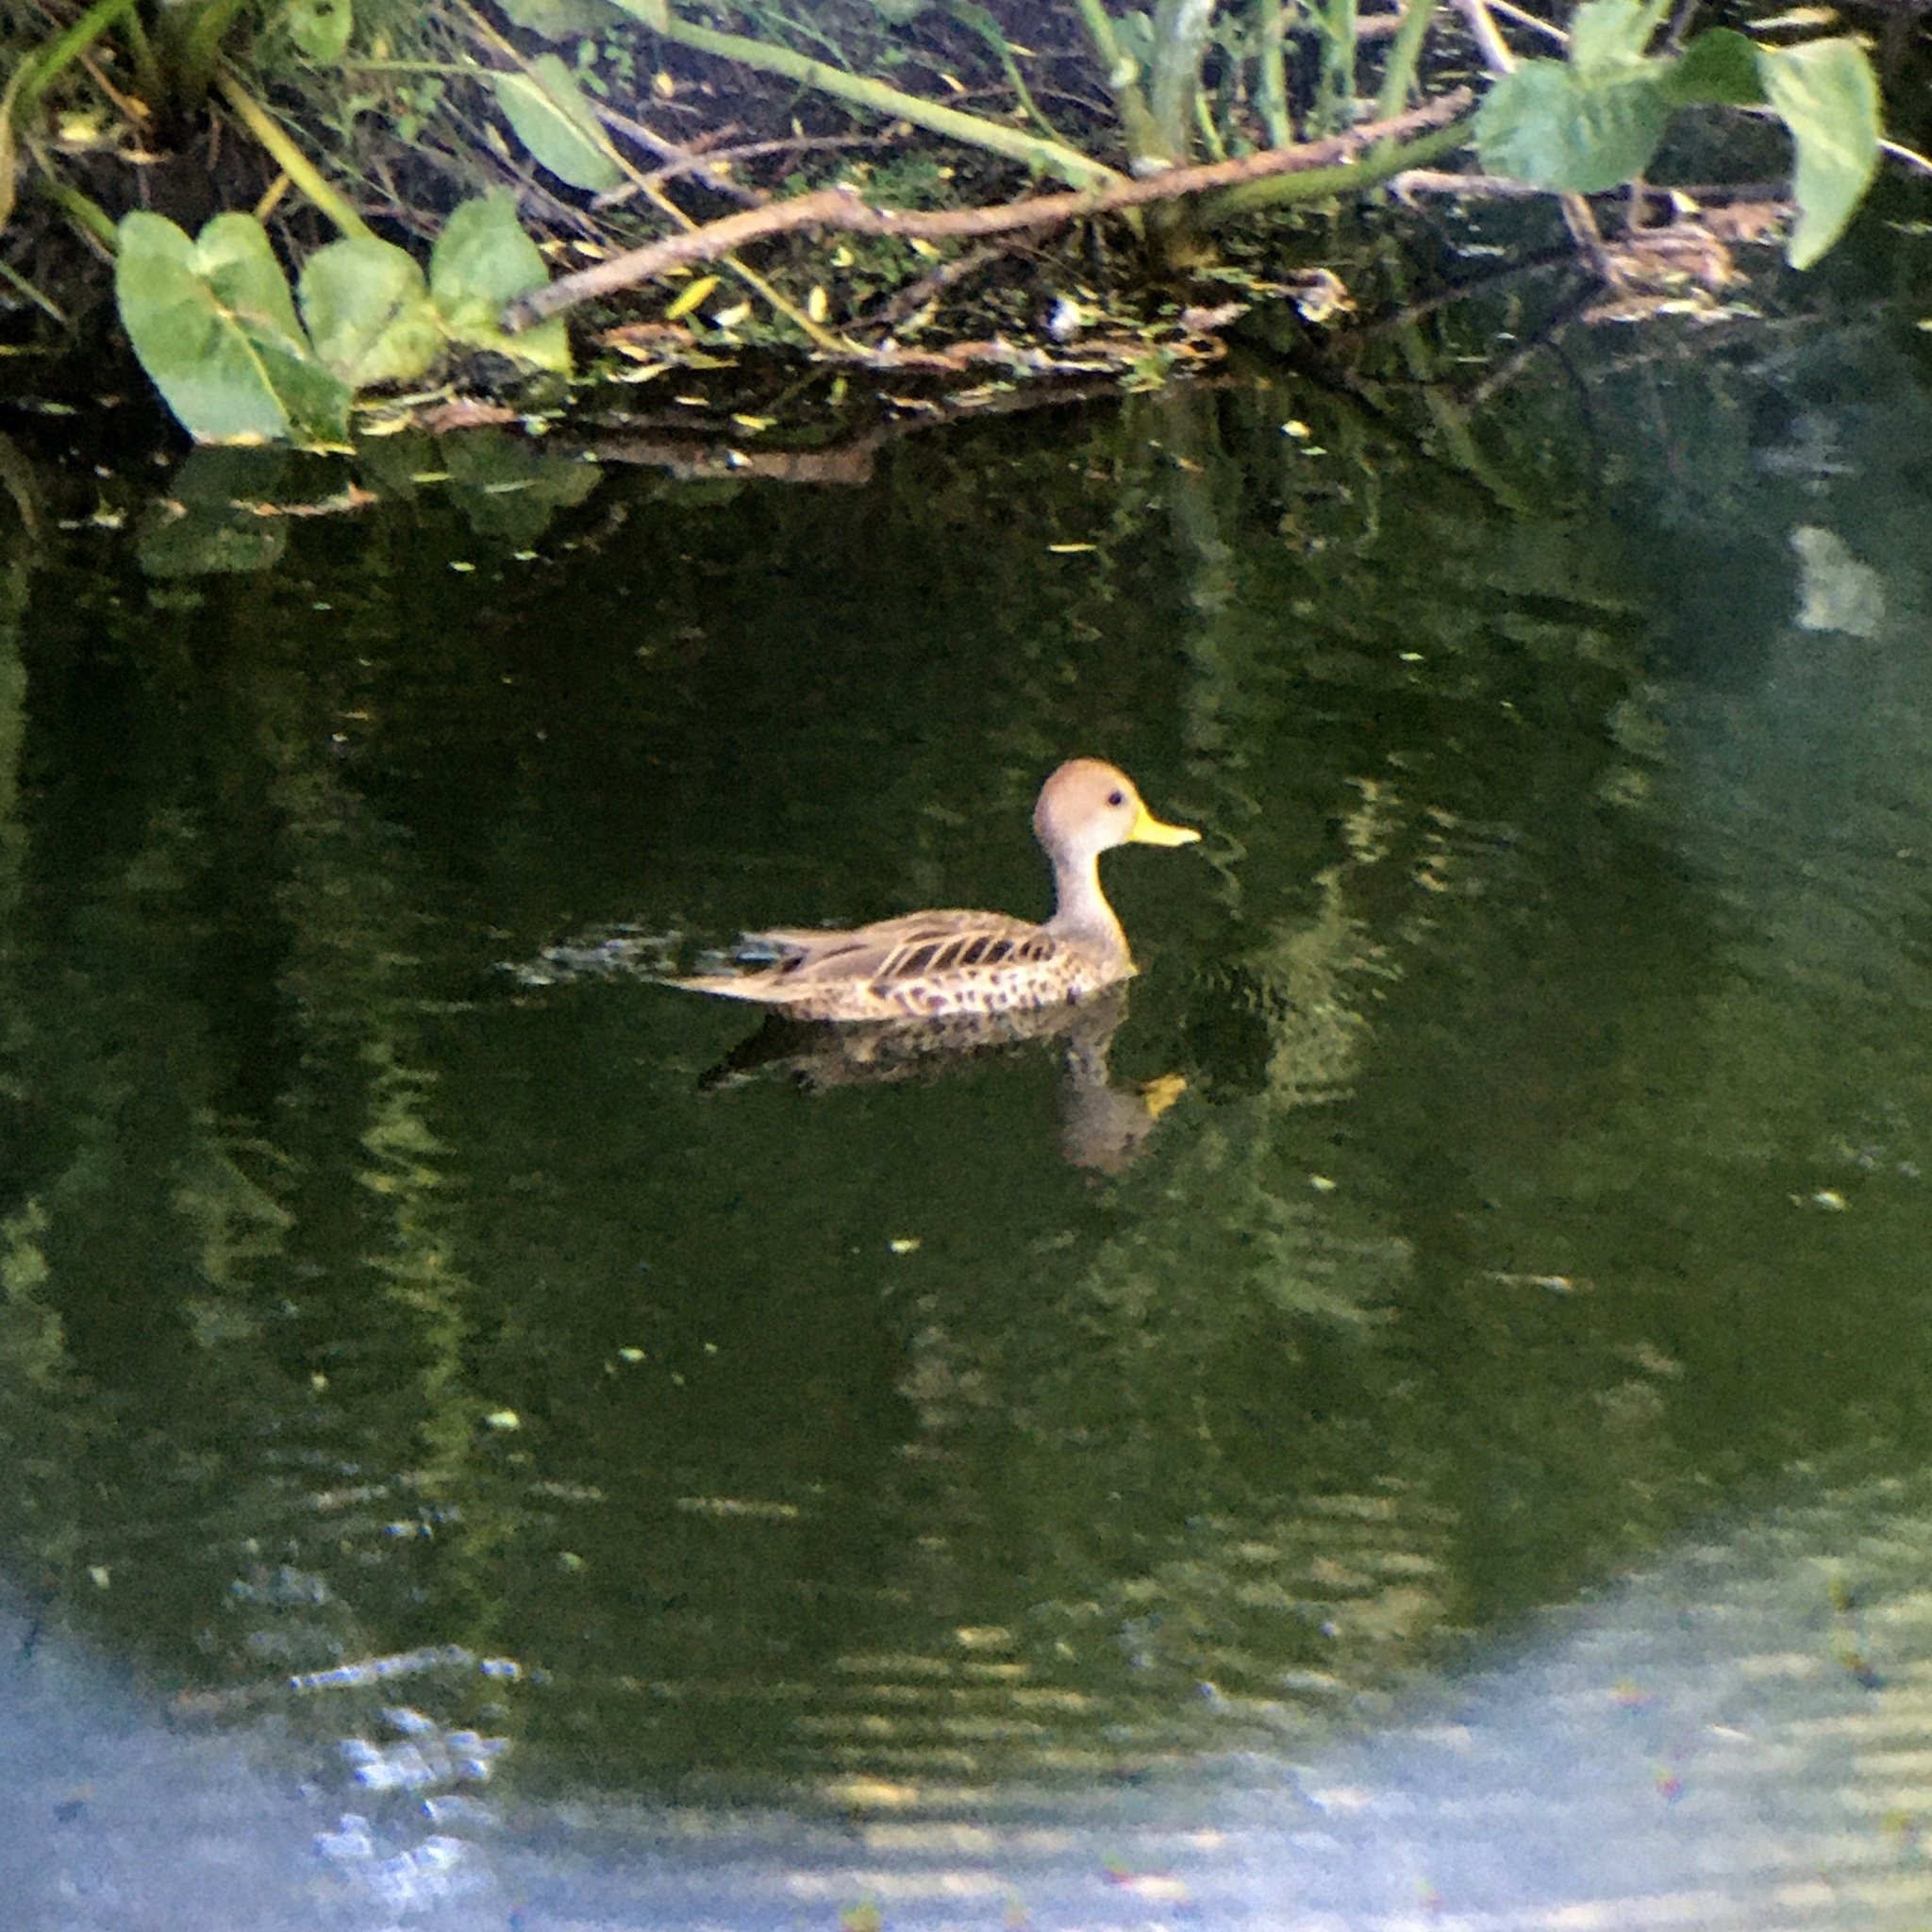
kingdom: Animalia
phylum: Chordata
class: Aves
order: Anseriformes
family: Anatidae
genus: Anas
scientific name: Anas georgica
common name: Yellow-billed pintail
